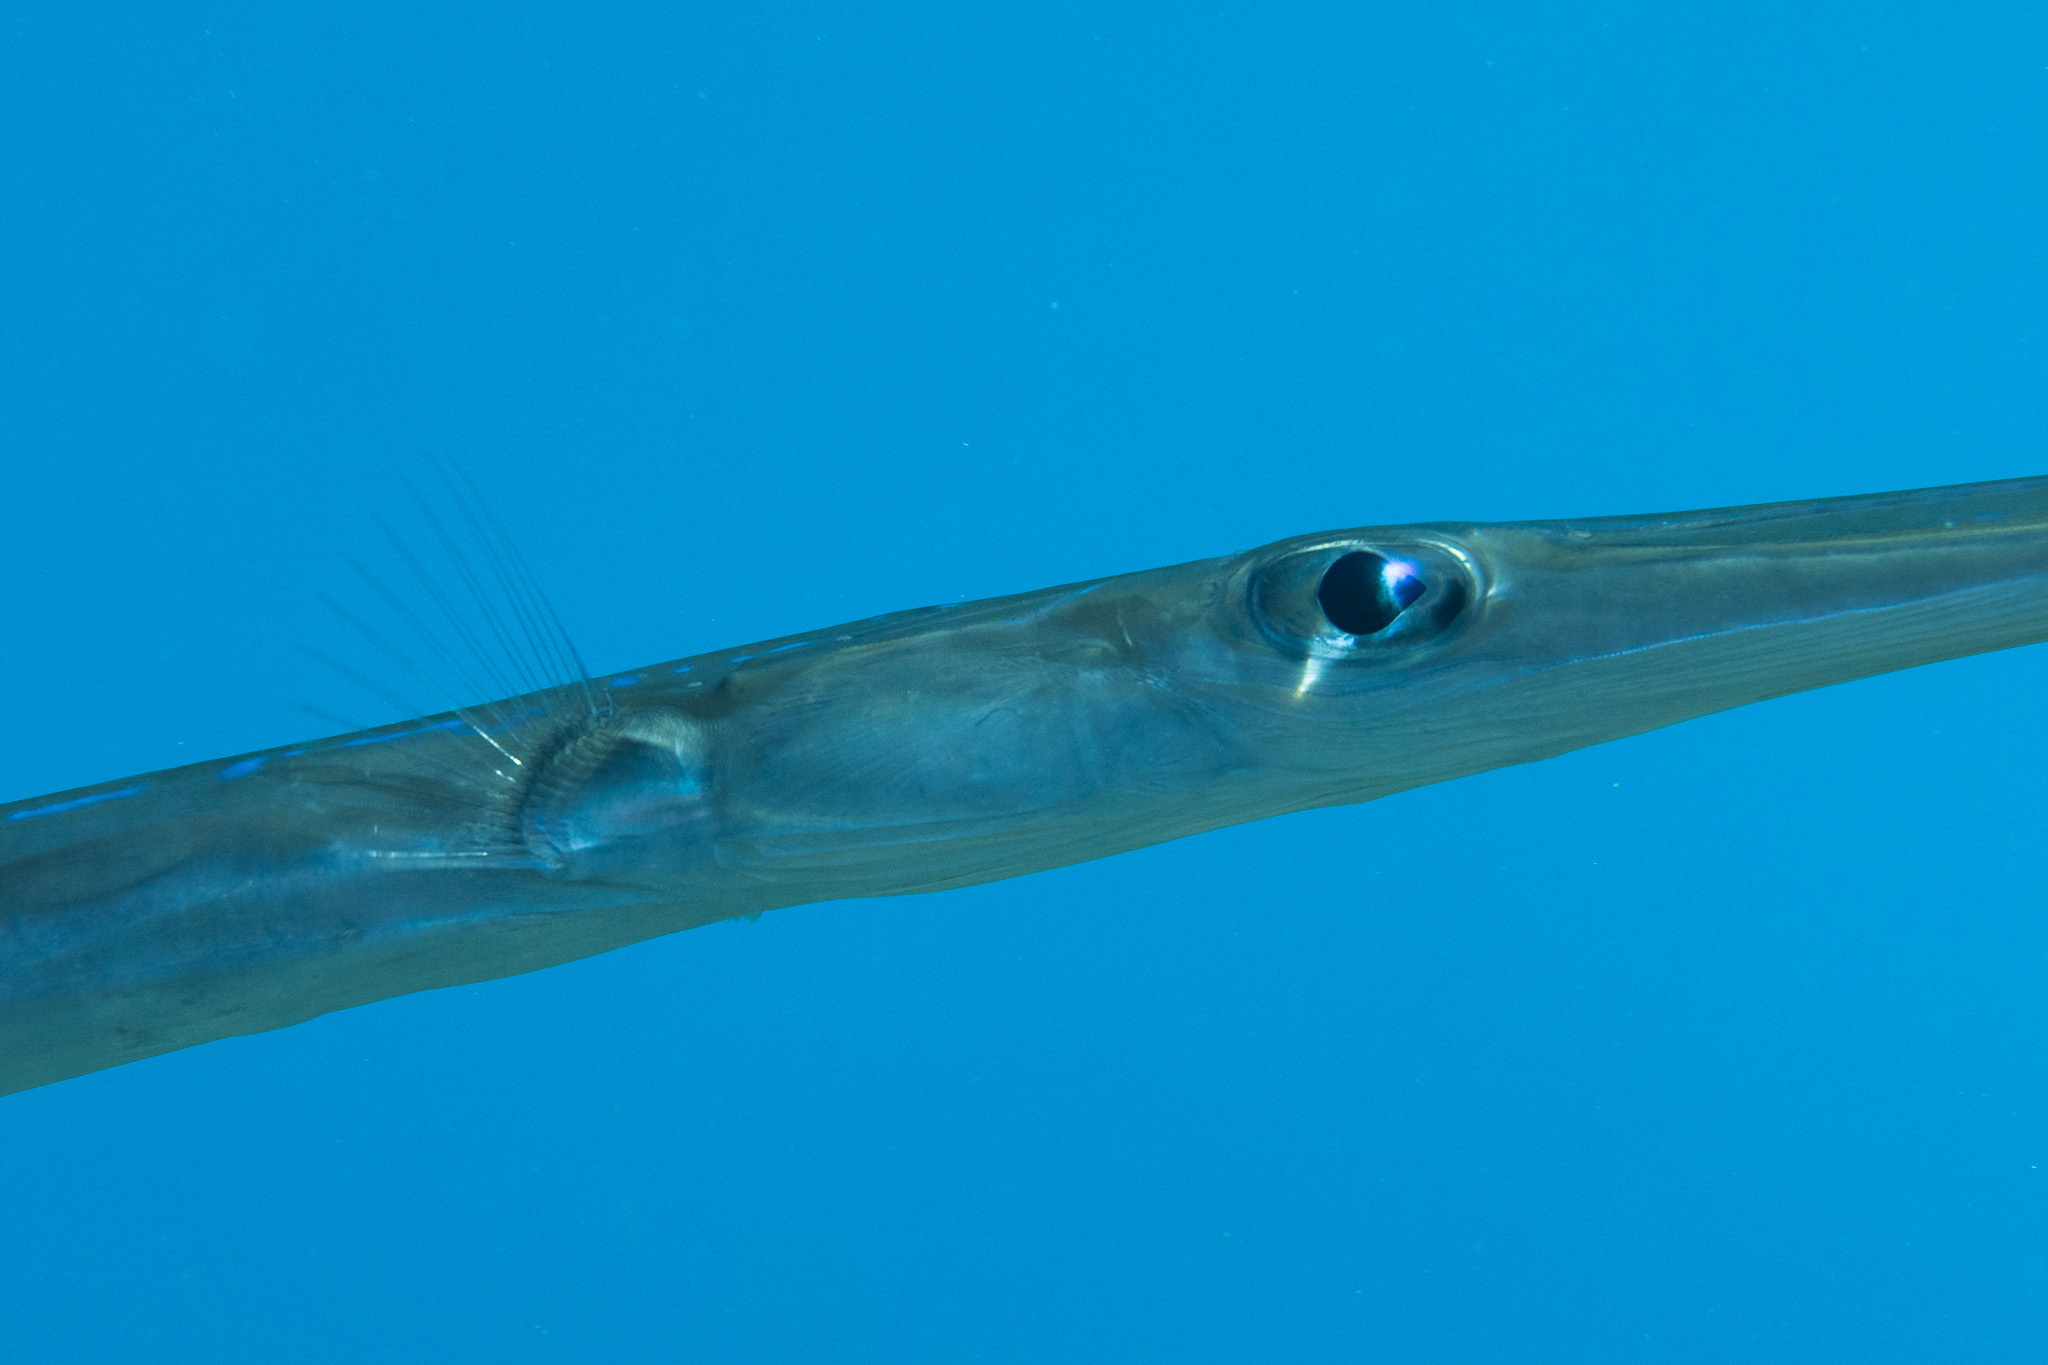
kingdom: Animalia
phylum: Chordata
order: Syngnathiformes
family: Fistulariidae
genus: Fistularia
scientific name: Fistularia commersonii
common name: Bluespotted cornetfish
